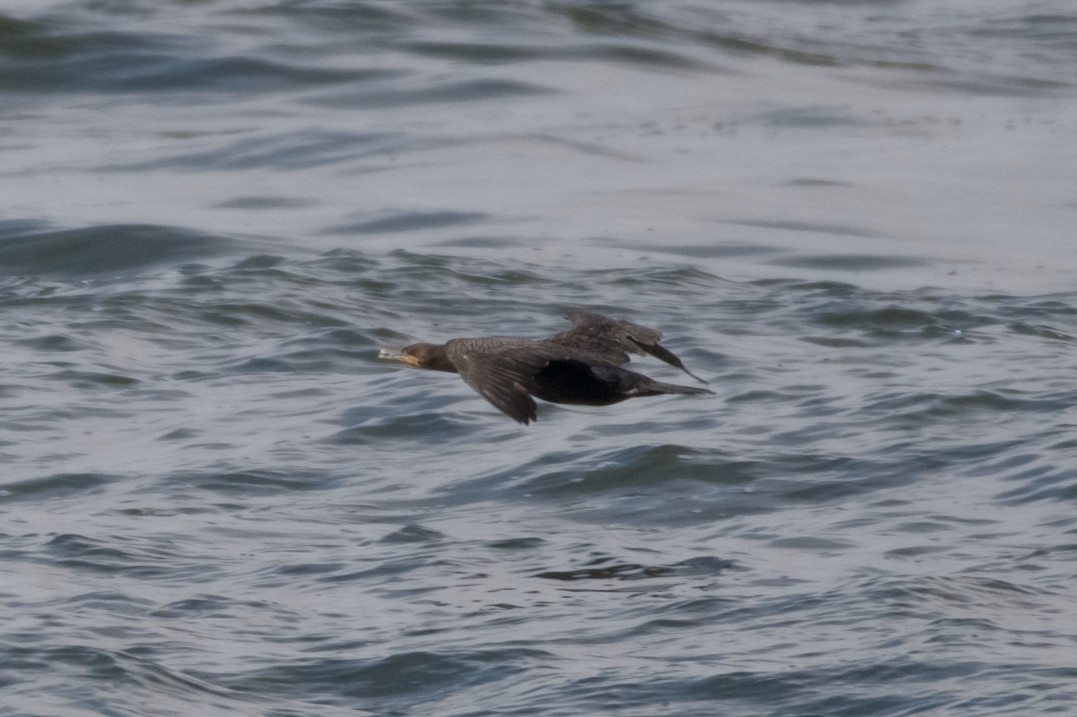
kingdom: Animalia
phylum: Chordata
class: Aves
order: Suliformes
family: Phalacrocoracidae
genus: Phalacrocorax
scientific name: Phalacrocorax auritus
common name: Double-crested cormorant
